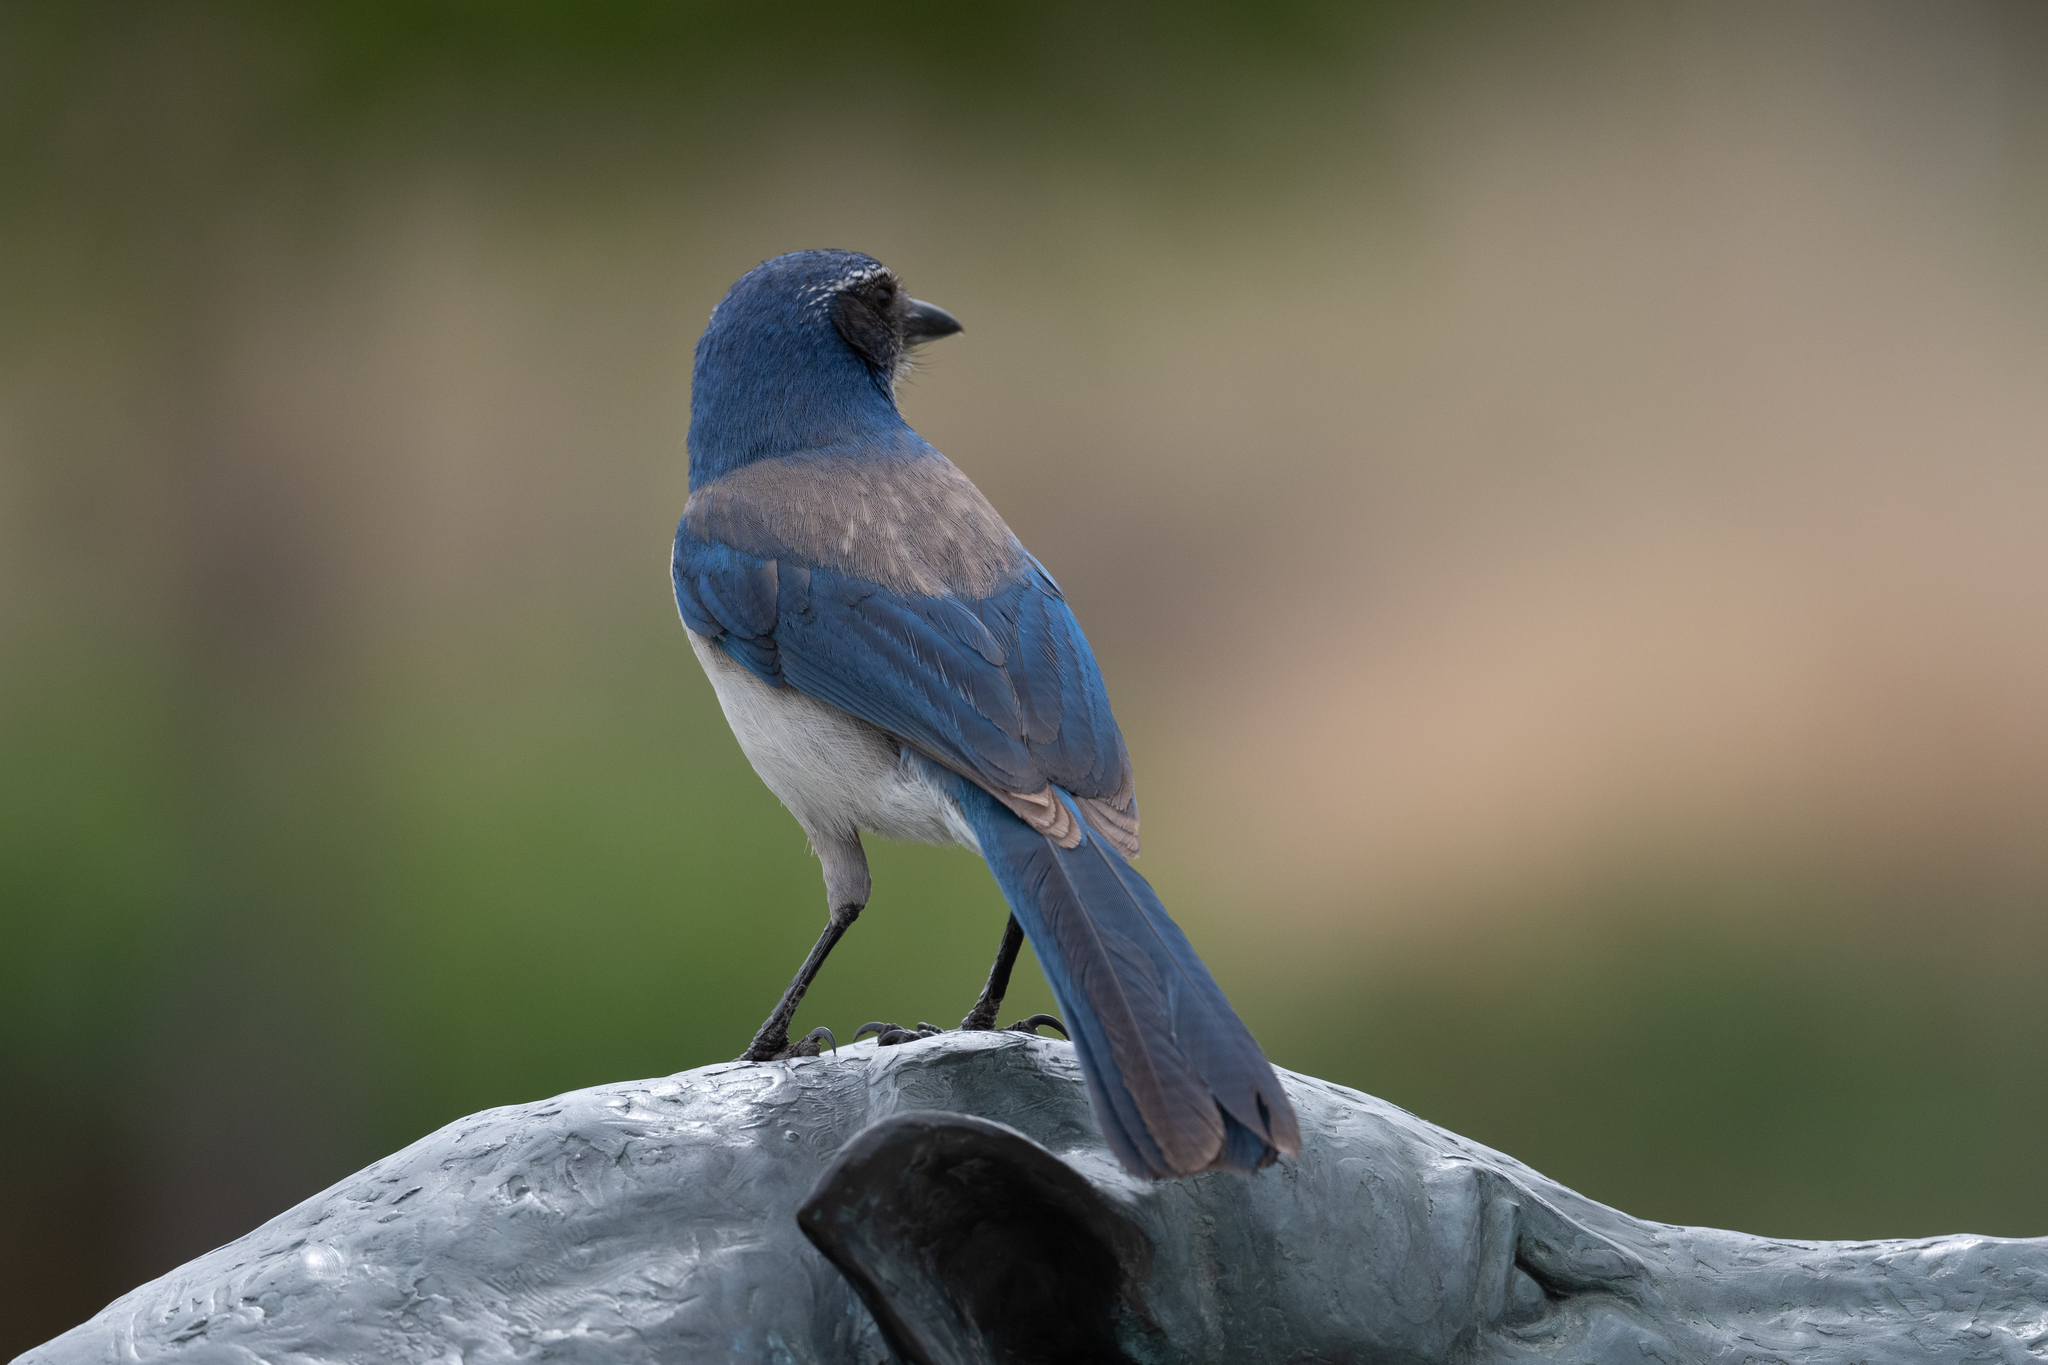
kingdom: Animalia
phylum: Chordata
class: Aves
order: Passeriformes
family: Corvidae
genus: Aphelocoma
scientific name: Aphelocoma californica
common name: California scrub-jay
